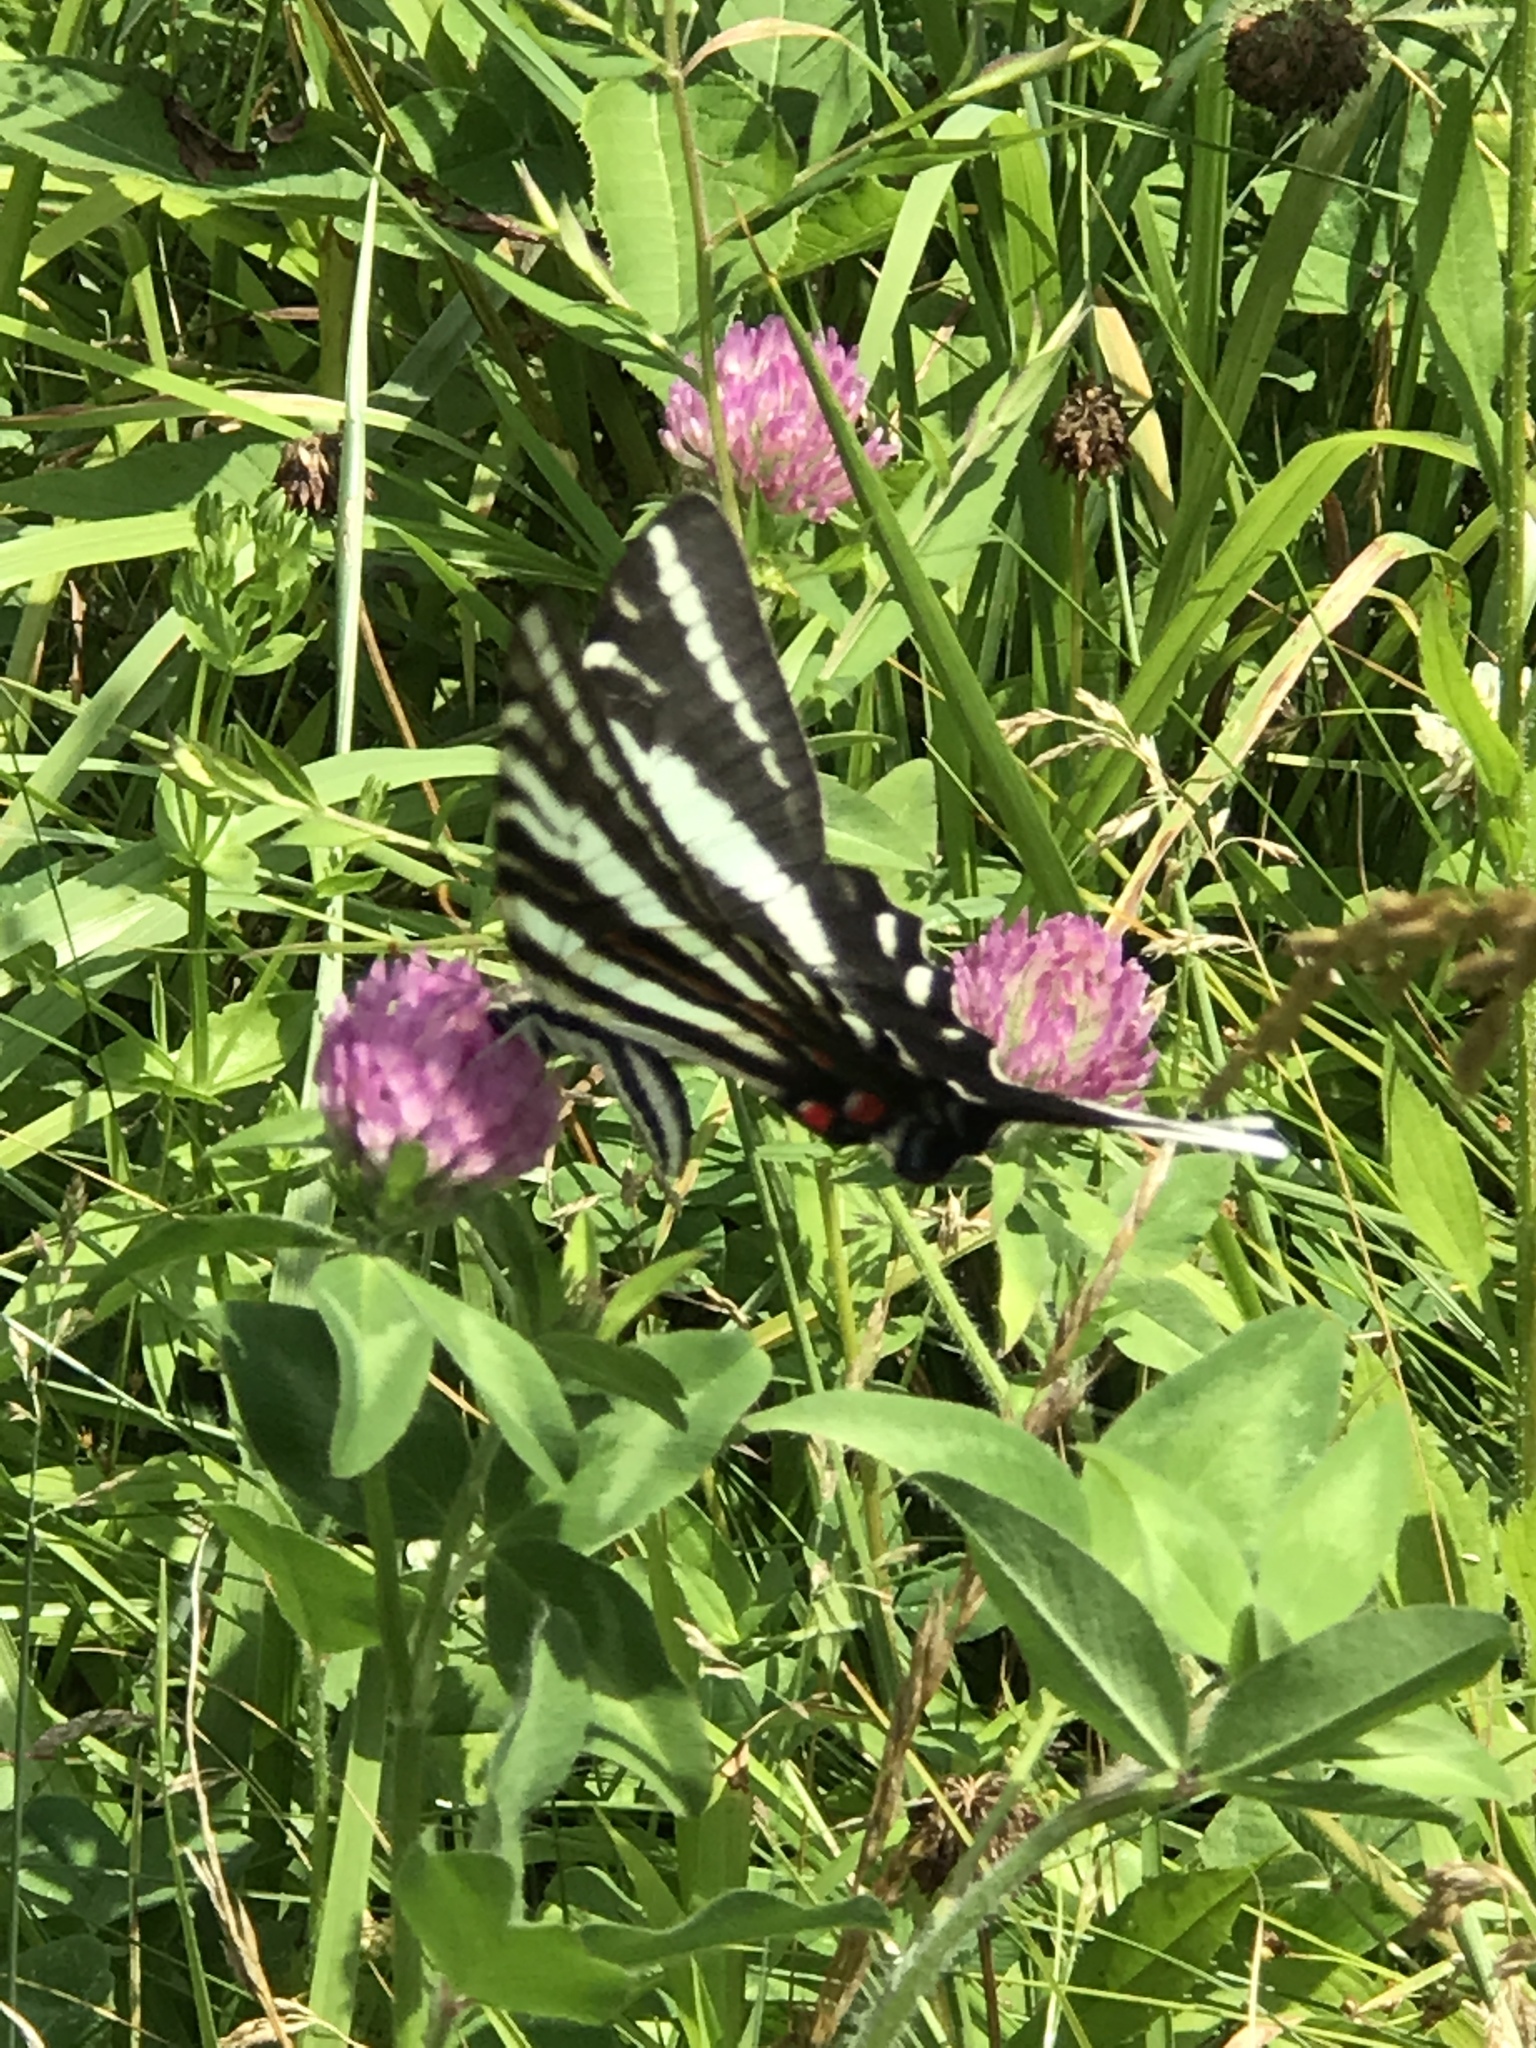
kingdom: Animalia
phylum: Arthropoda
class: Insecta
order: Lepidoptera
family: Papilionidae
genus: Protographium
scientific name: Protographium marcellus
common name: Zebra swallowtail
